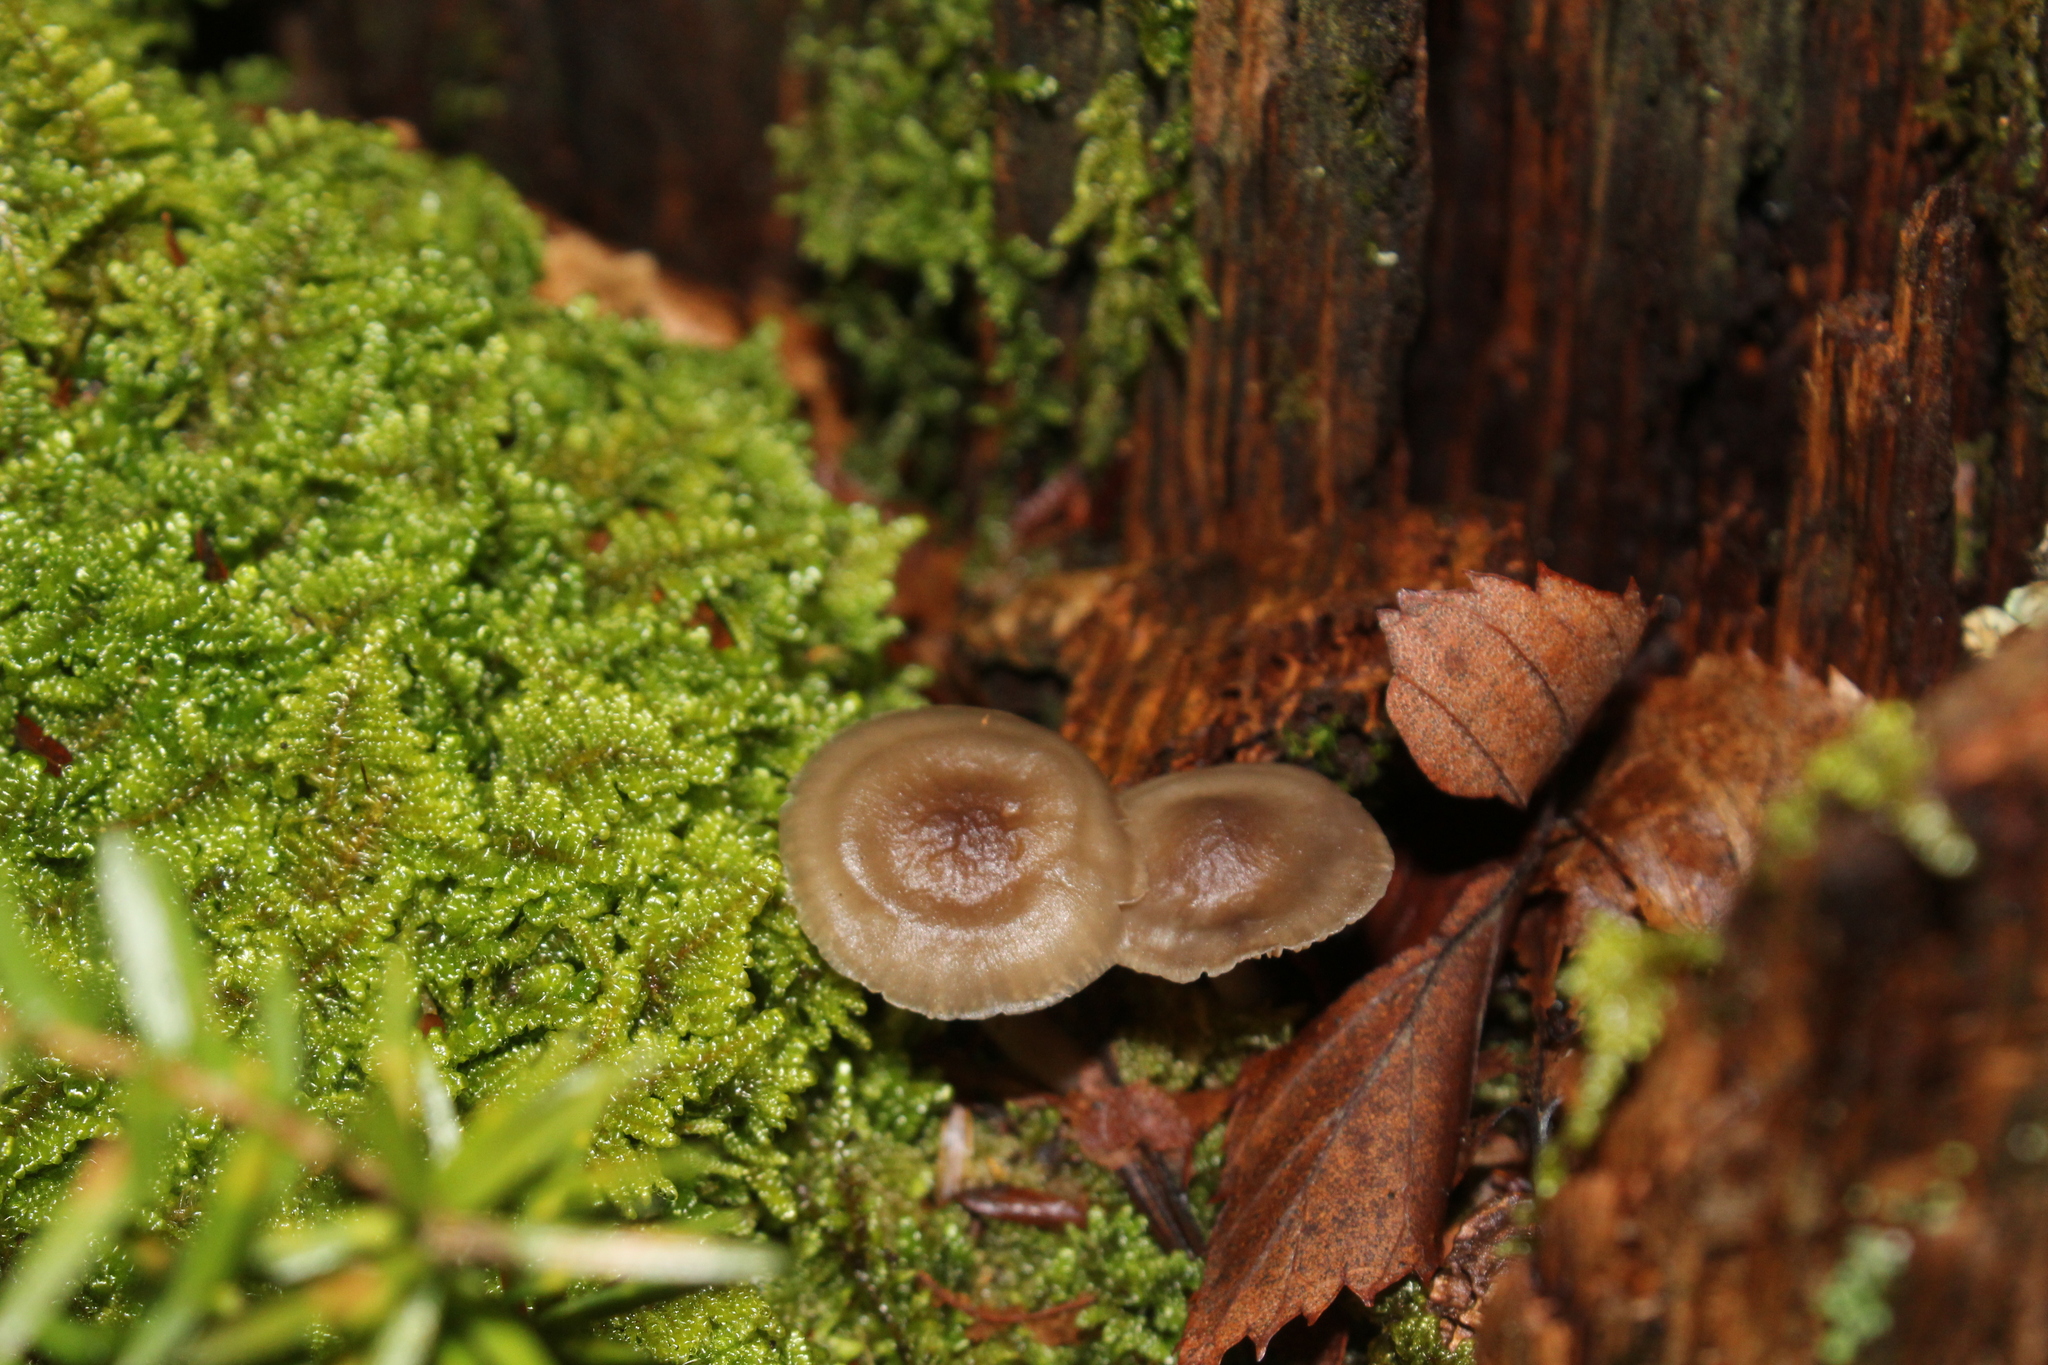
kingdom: Plantae
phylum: Bryophyta
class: Bryopsida
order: Hypnales
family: Callicladiaceae
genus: Callicladium
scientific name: Callicladium imponens
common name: Brocade moss
